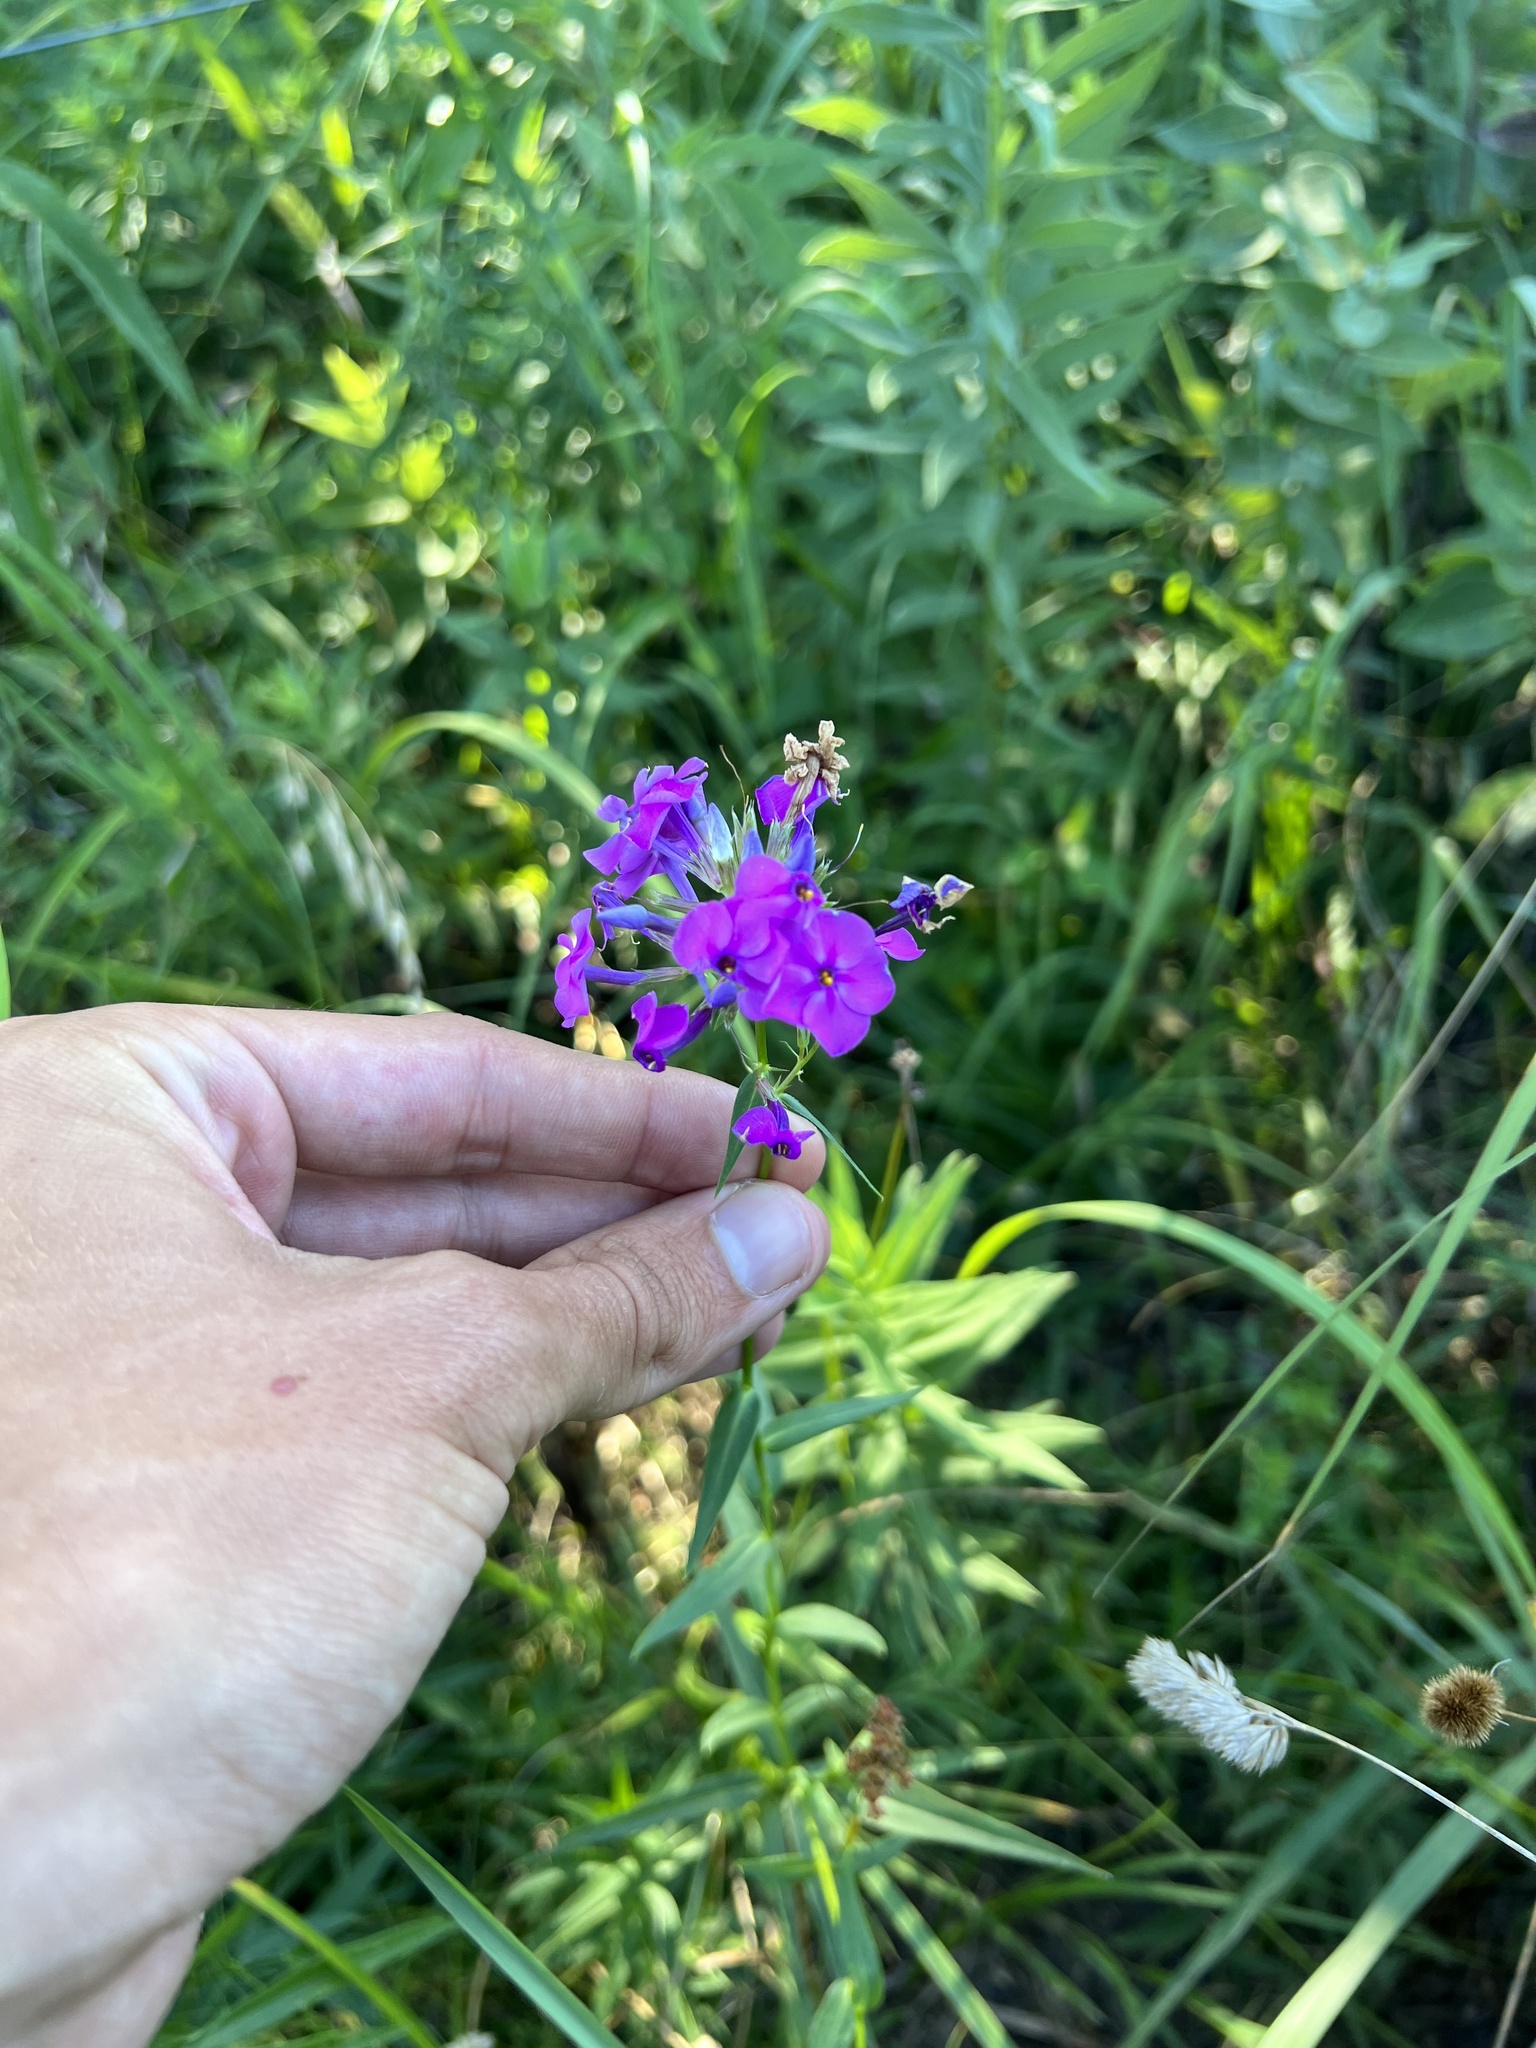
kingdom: Plantae
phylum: Tracheophyta
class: Magnoliopsida
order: Ericales
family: Polemoniaceae
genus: Phlox
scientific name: Phlox glaberrima
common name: Smooth phlox
